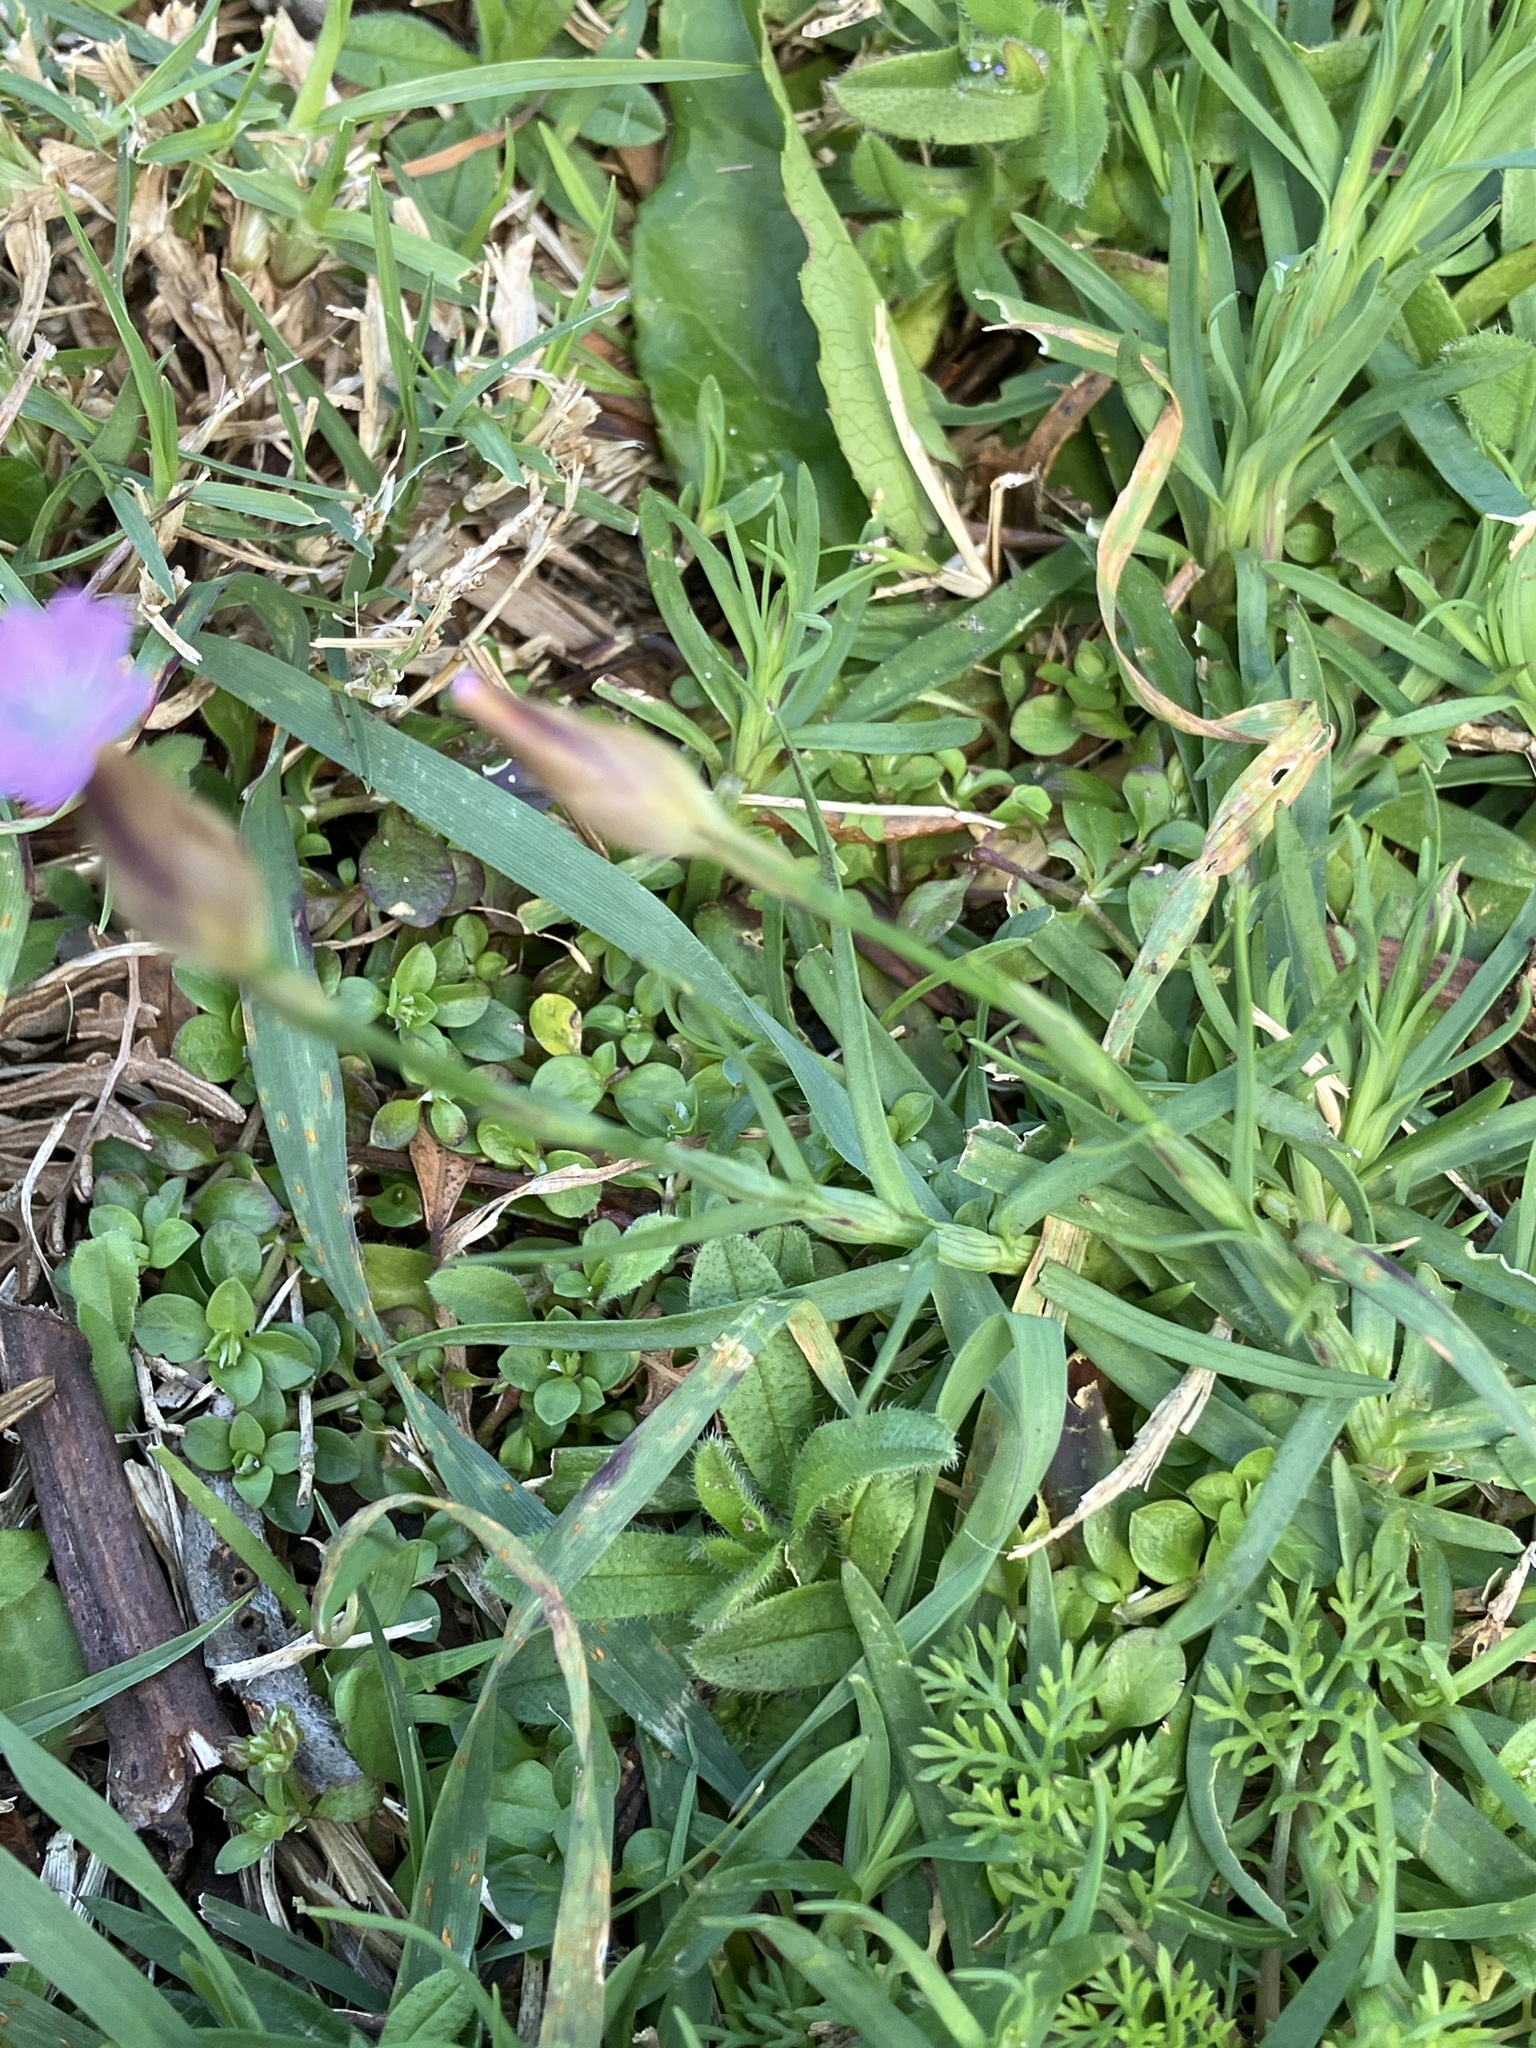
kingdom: Plantae
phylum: Tracheophyta
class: Magnoliopsida
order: Caryophyllales
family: Caryophyllaceae
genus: Petrorhagia
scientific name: Petrorhagia dubia
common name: Hairypink
